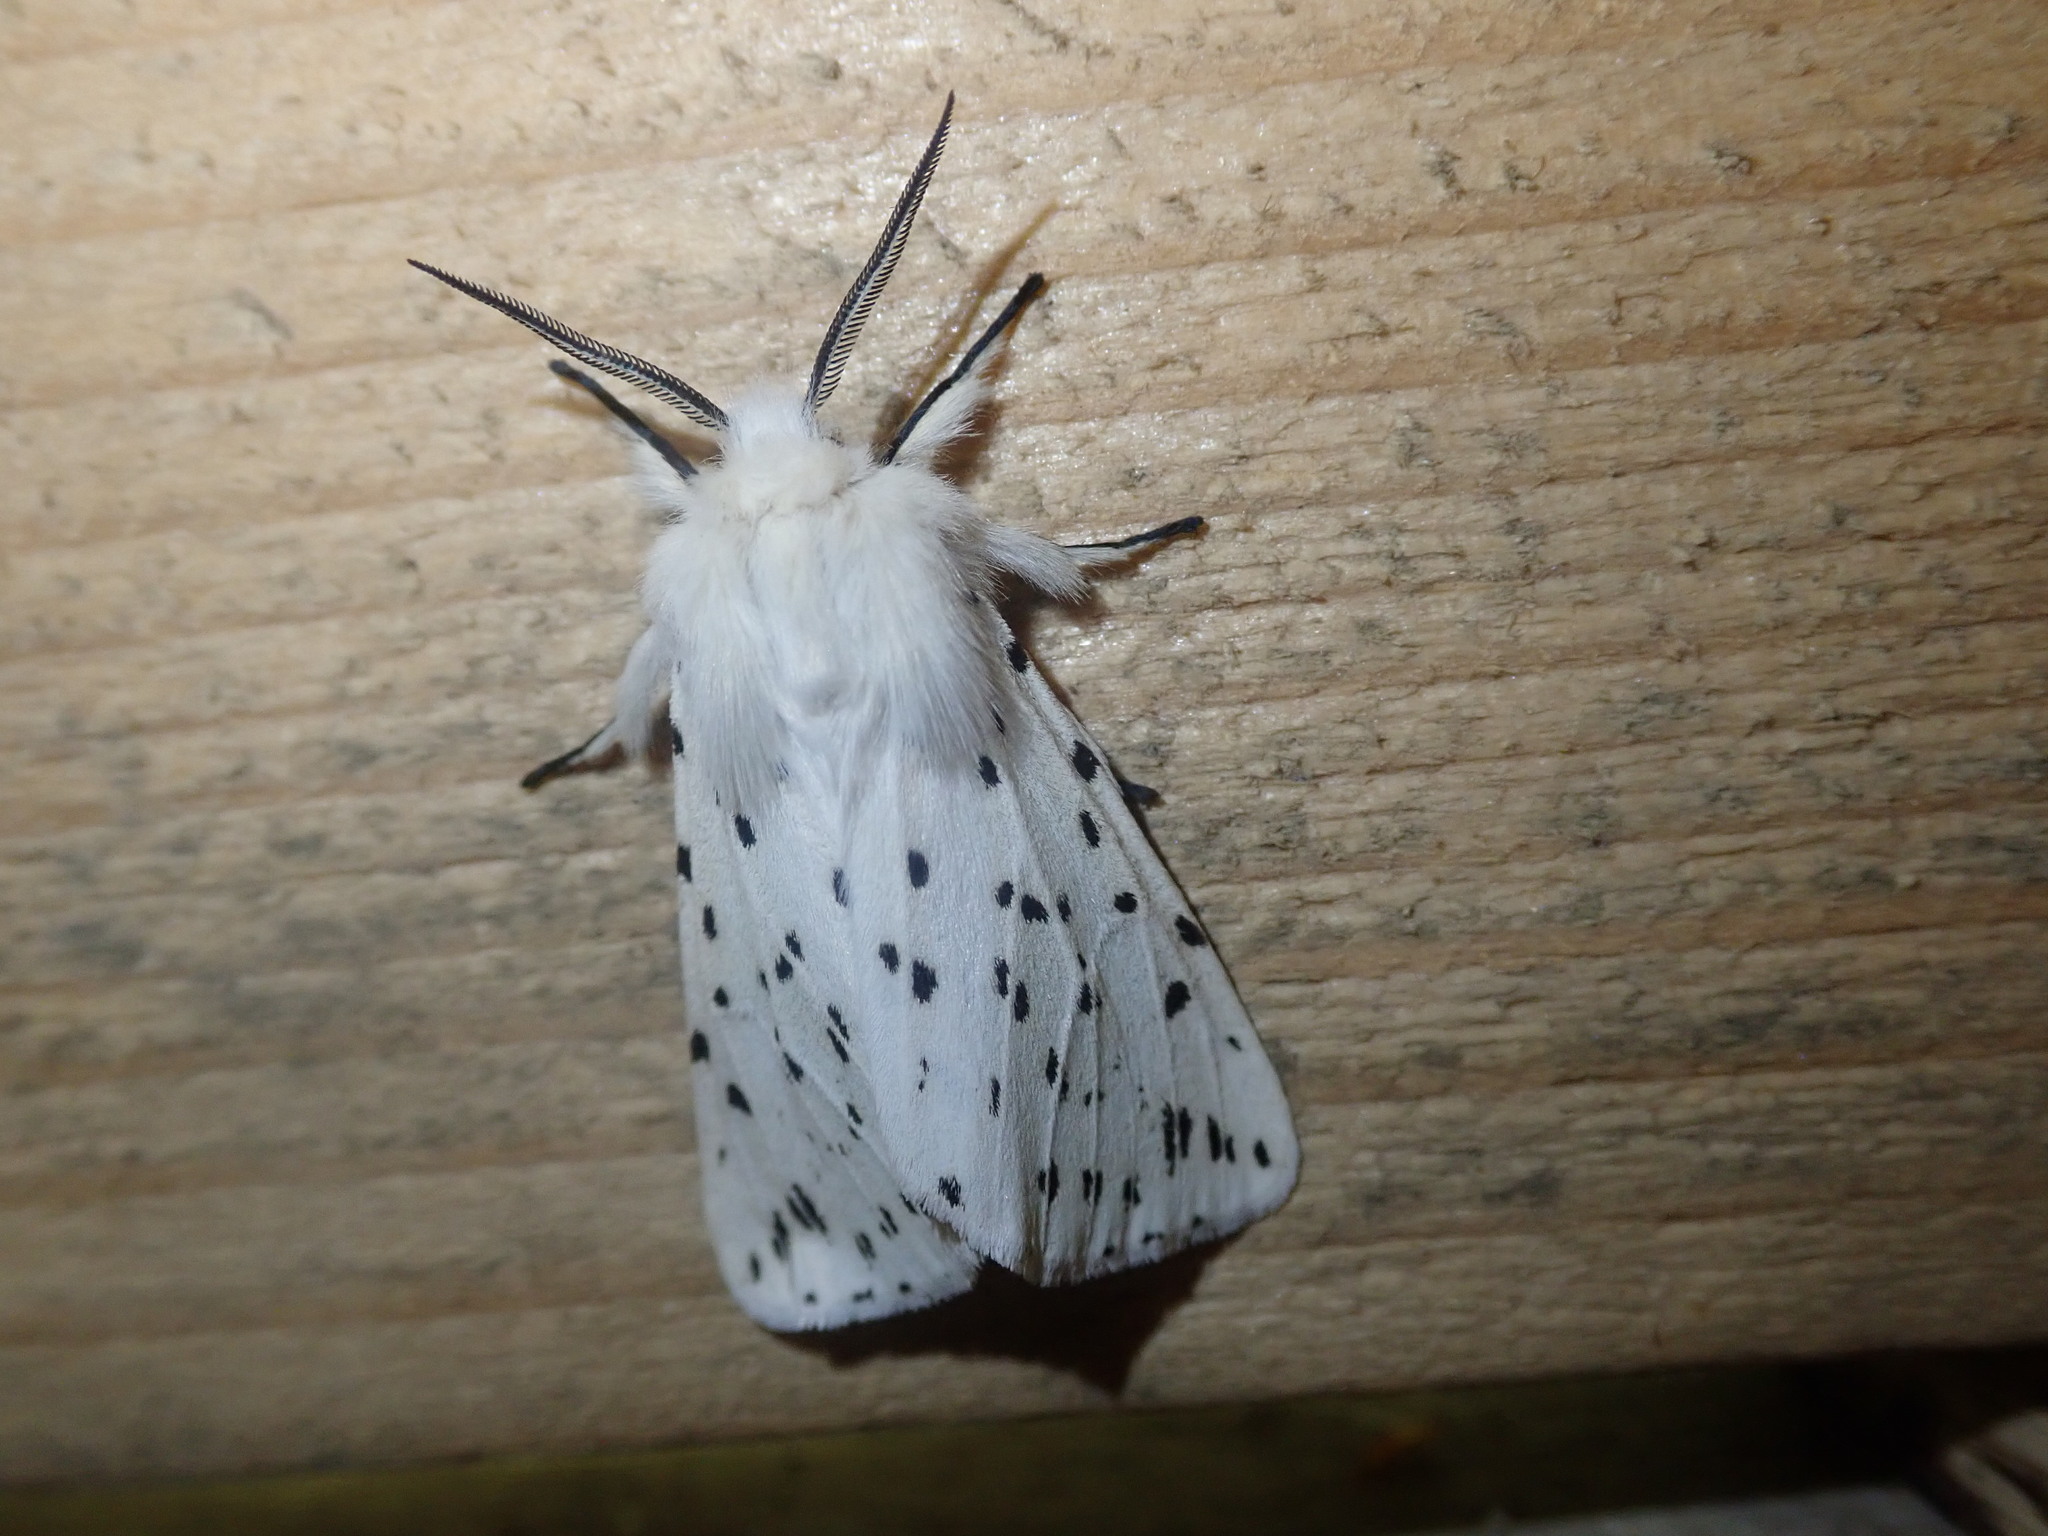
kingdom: Animalia
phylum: Arthropoda
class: Insecta
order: Lepidoptera
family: Erebidae
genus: Spilosoma
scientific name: Spilosoma lubricipeda
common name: White ermine
